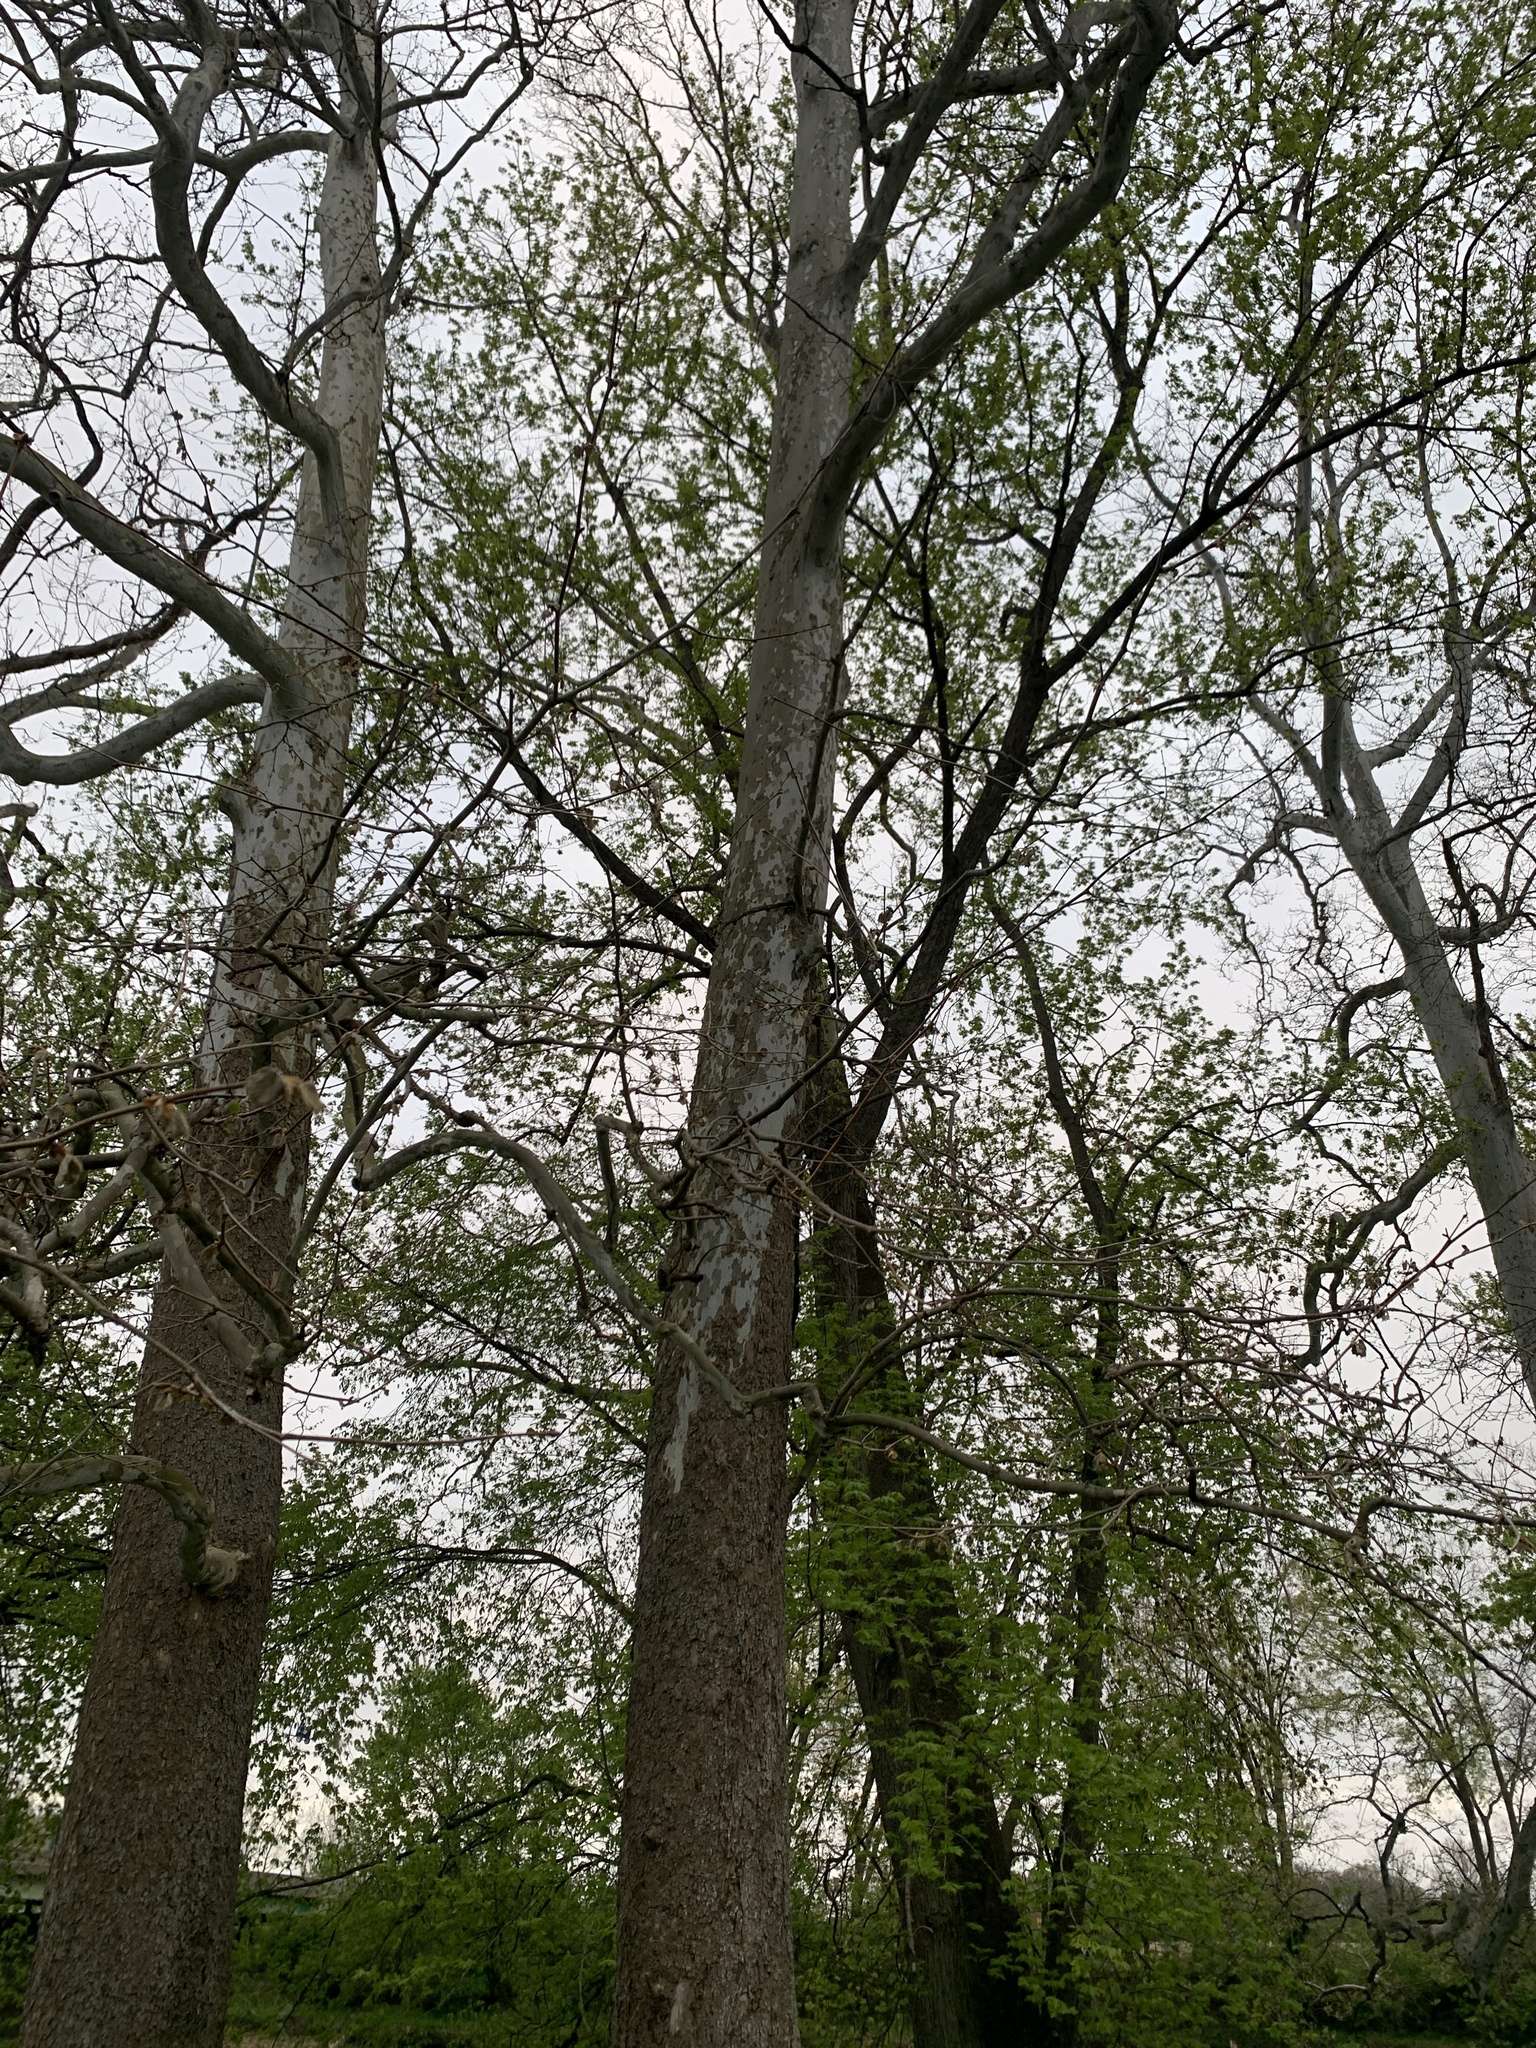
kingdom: Plantae
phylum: Tracheophyta
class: Magnoliopsida
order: Proteales
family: Platanaceae
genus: Platanus
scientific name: Platanus occidentalis
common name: American sycamore
